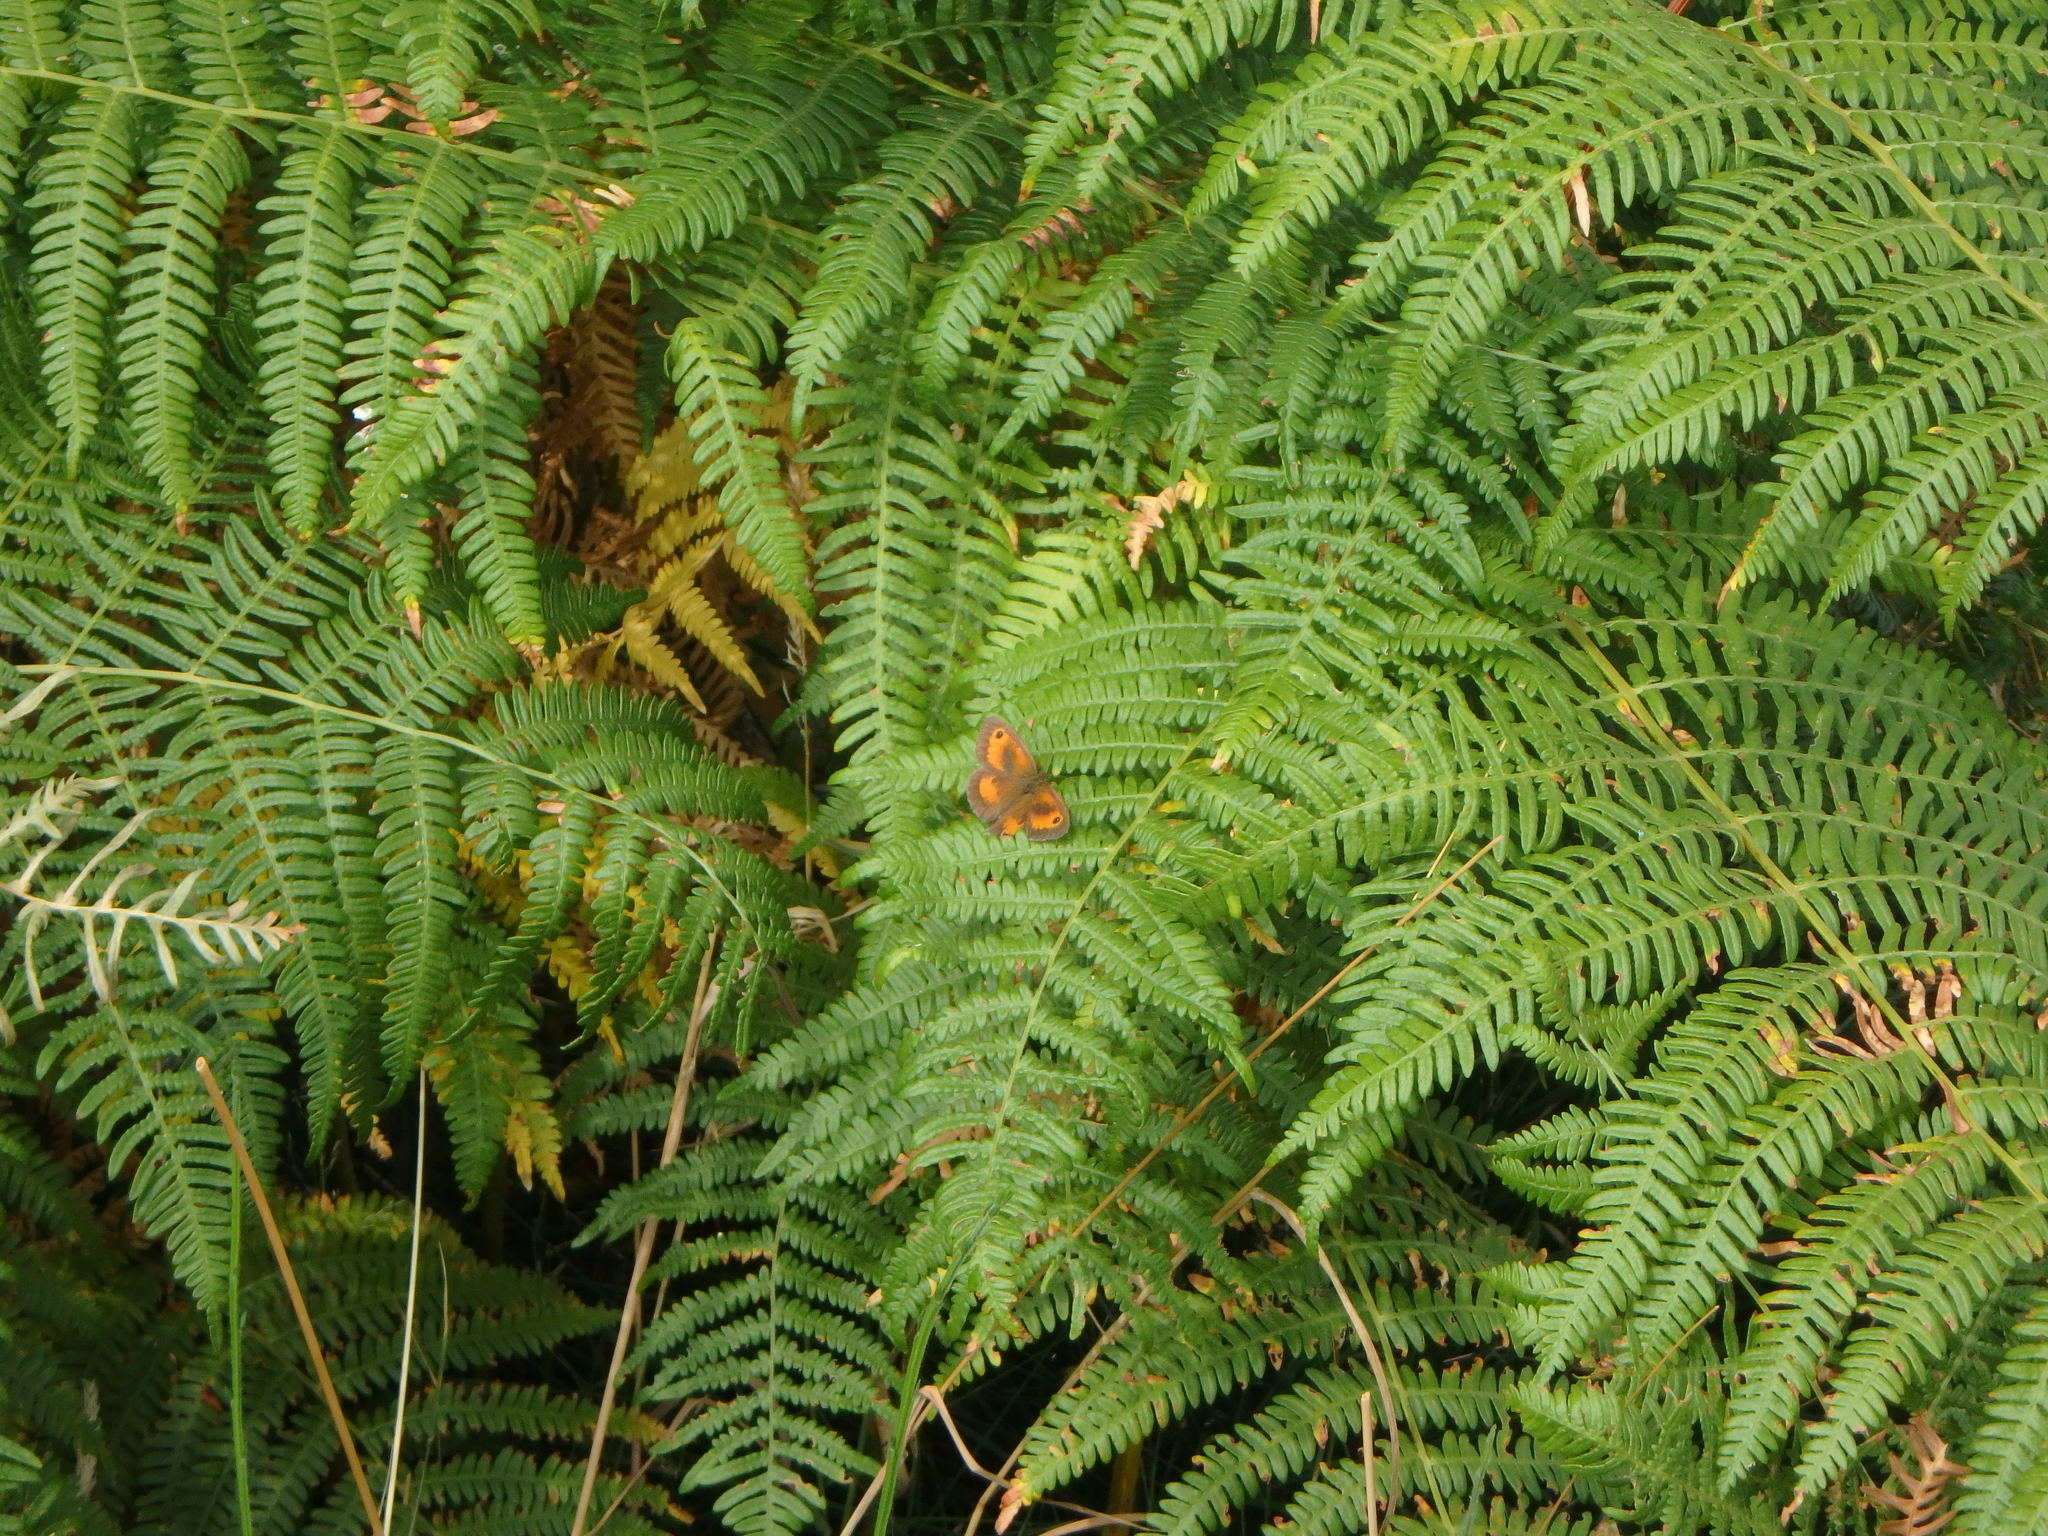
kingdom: Animalia
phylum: Arthropoda
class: Insecta
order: Lepidoptera
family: Nymphalidae
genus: Pyronia
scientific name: Pyronia tithonus
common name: Gatekeeper
